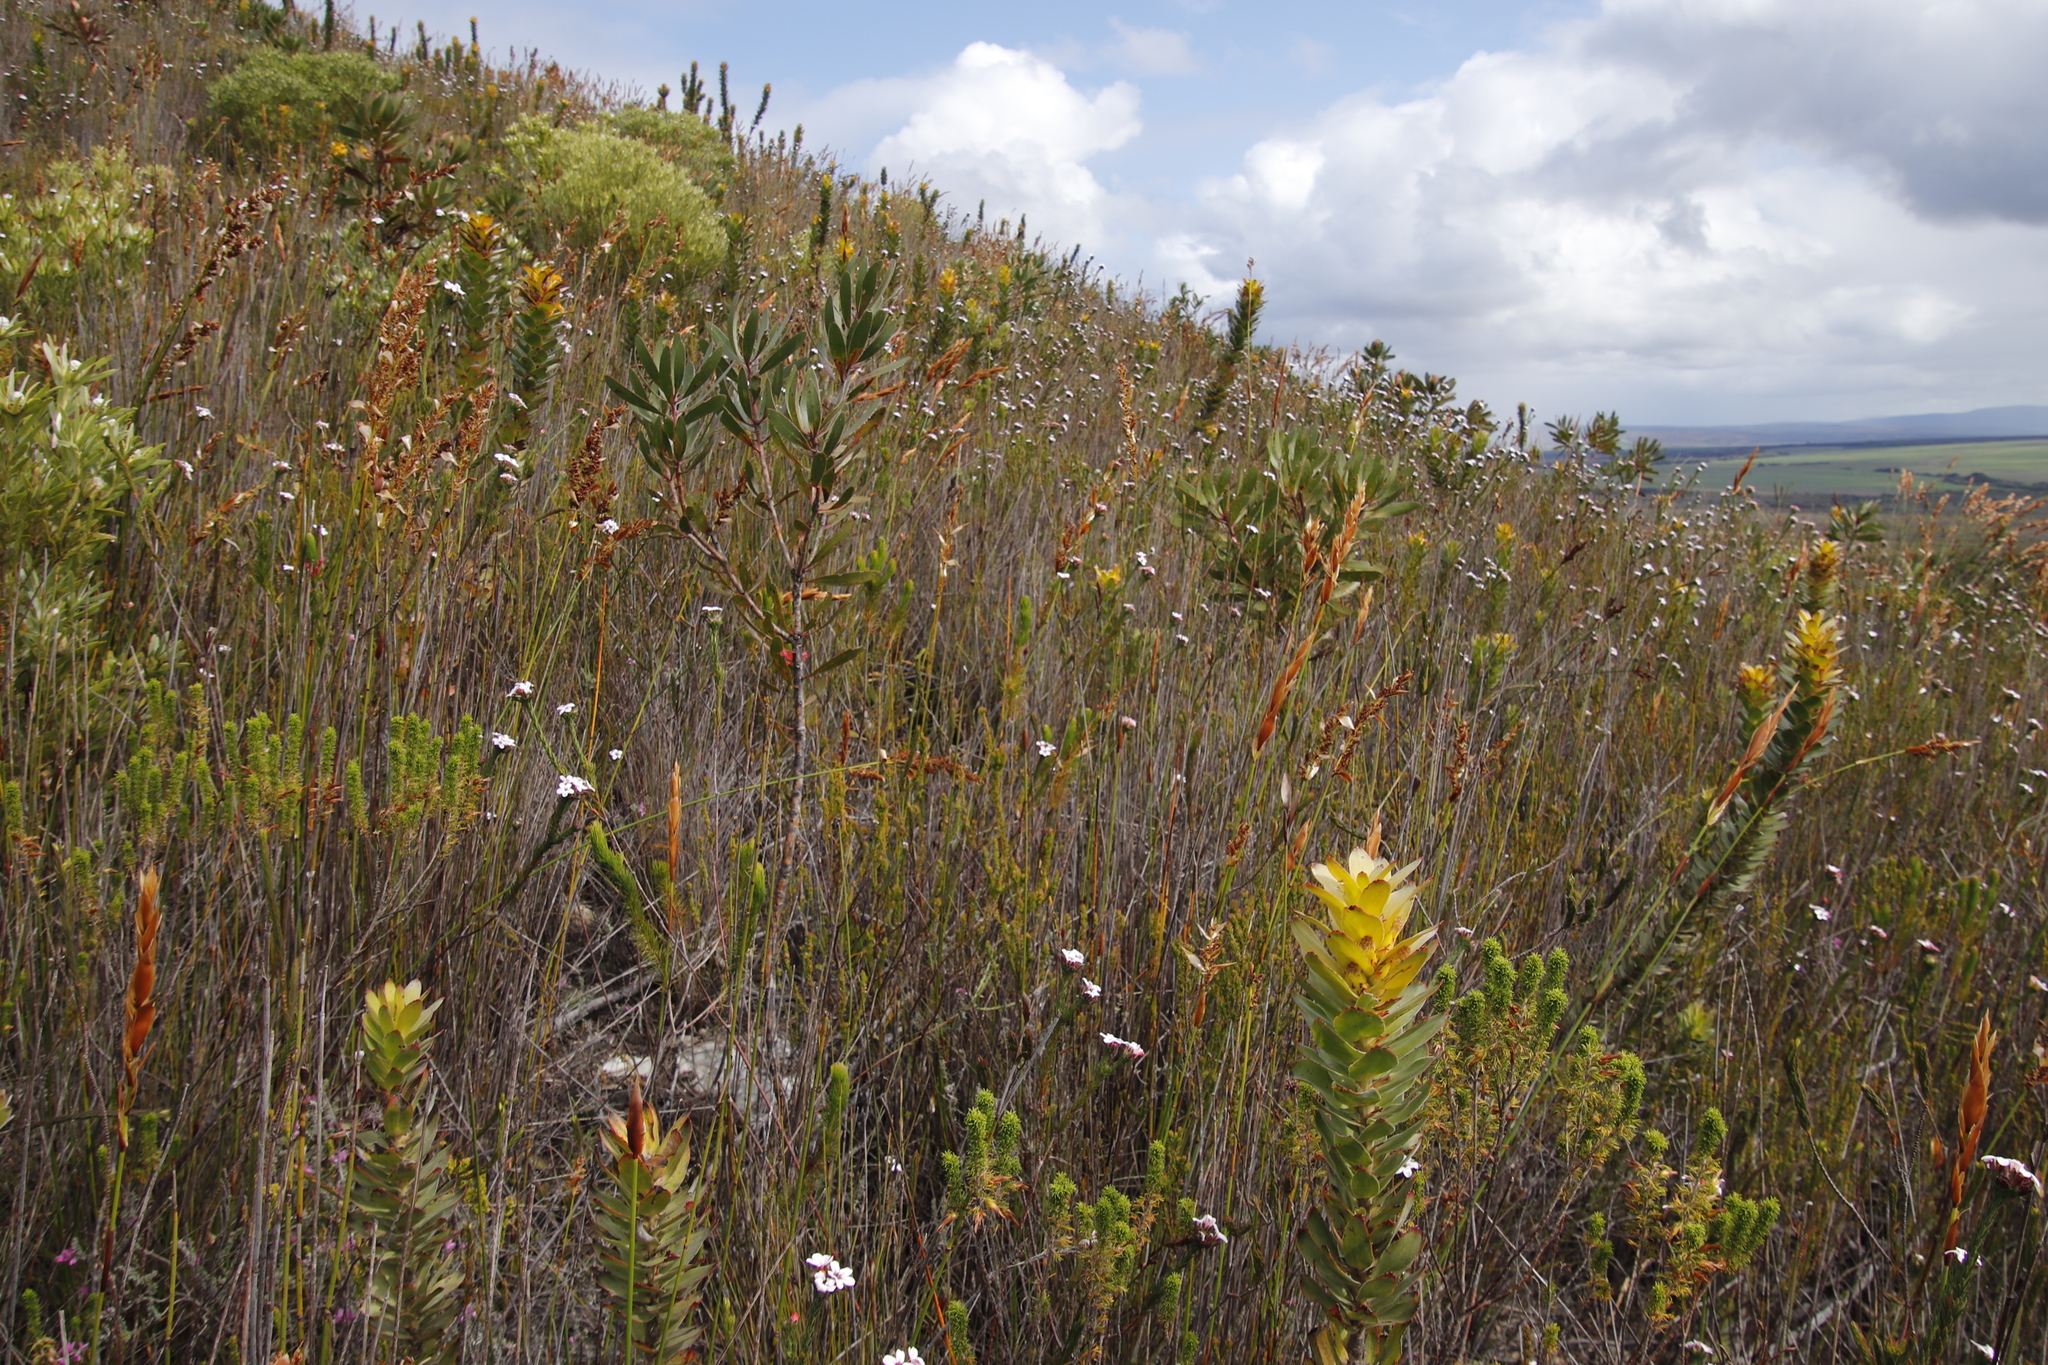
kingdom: Plantae
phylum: Tracheophyta
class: Magnoliopsida
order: Proteales
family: Proteaceae
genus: Mimetes
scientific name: Mimetes saxatilis
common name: Limestone pagoda
